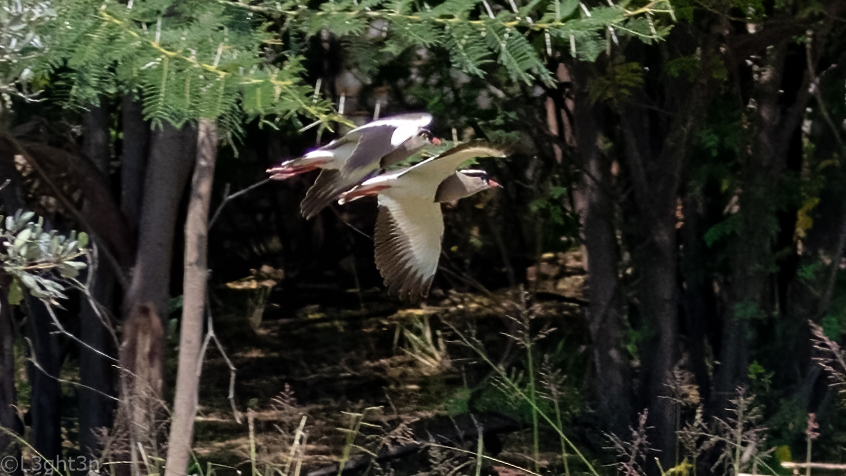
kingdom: Animalia
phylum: Chordata
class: Aves
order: Charadriiformes
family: Charadriidae
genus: Vanellus
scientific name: Vanellus coronatus
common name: Crowned lapwing
